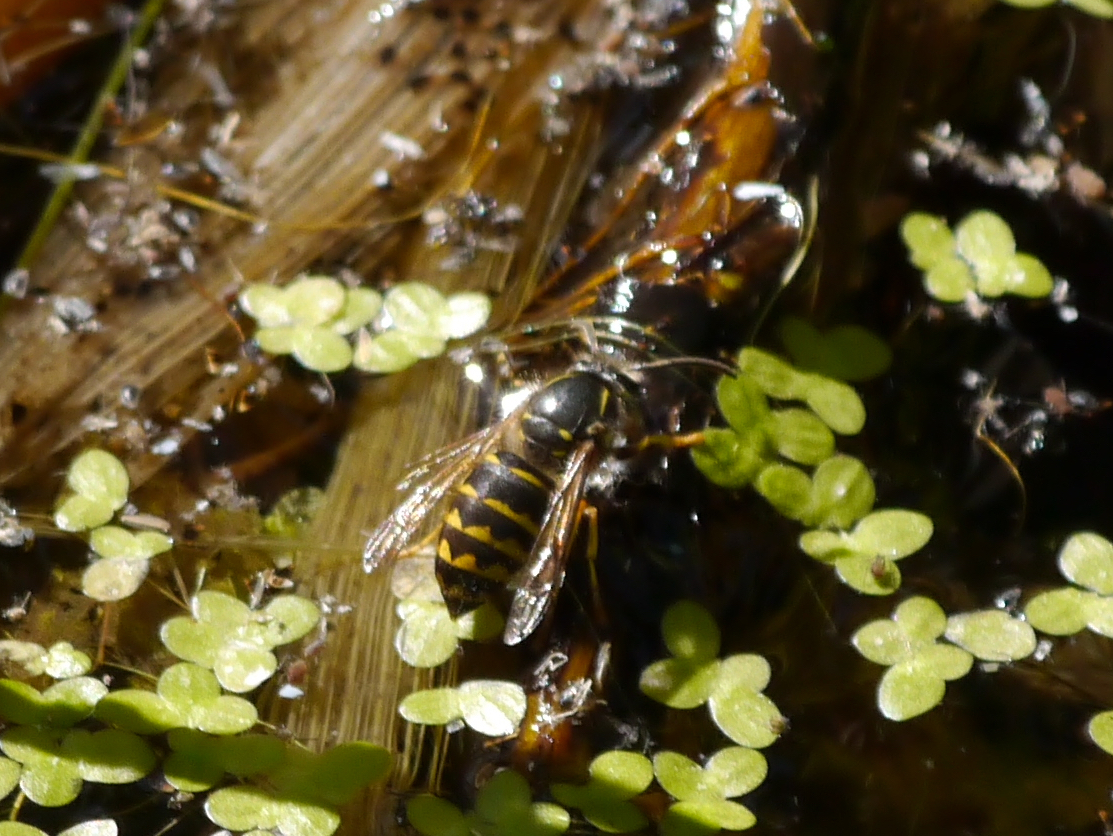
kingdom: Animalia
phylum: Arthropoda
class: Insecta
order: Hymenoptera
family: Vespidae
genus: Dolichovespula
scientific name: Dolichovespula arenaria
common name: Aerial yellowjacket
